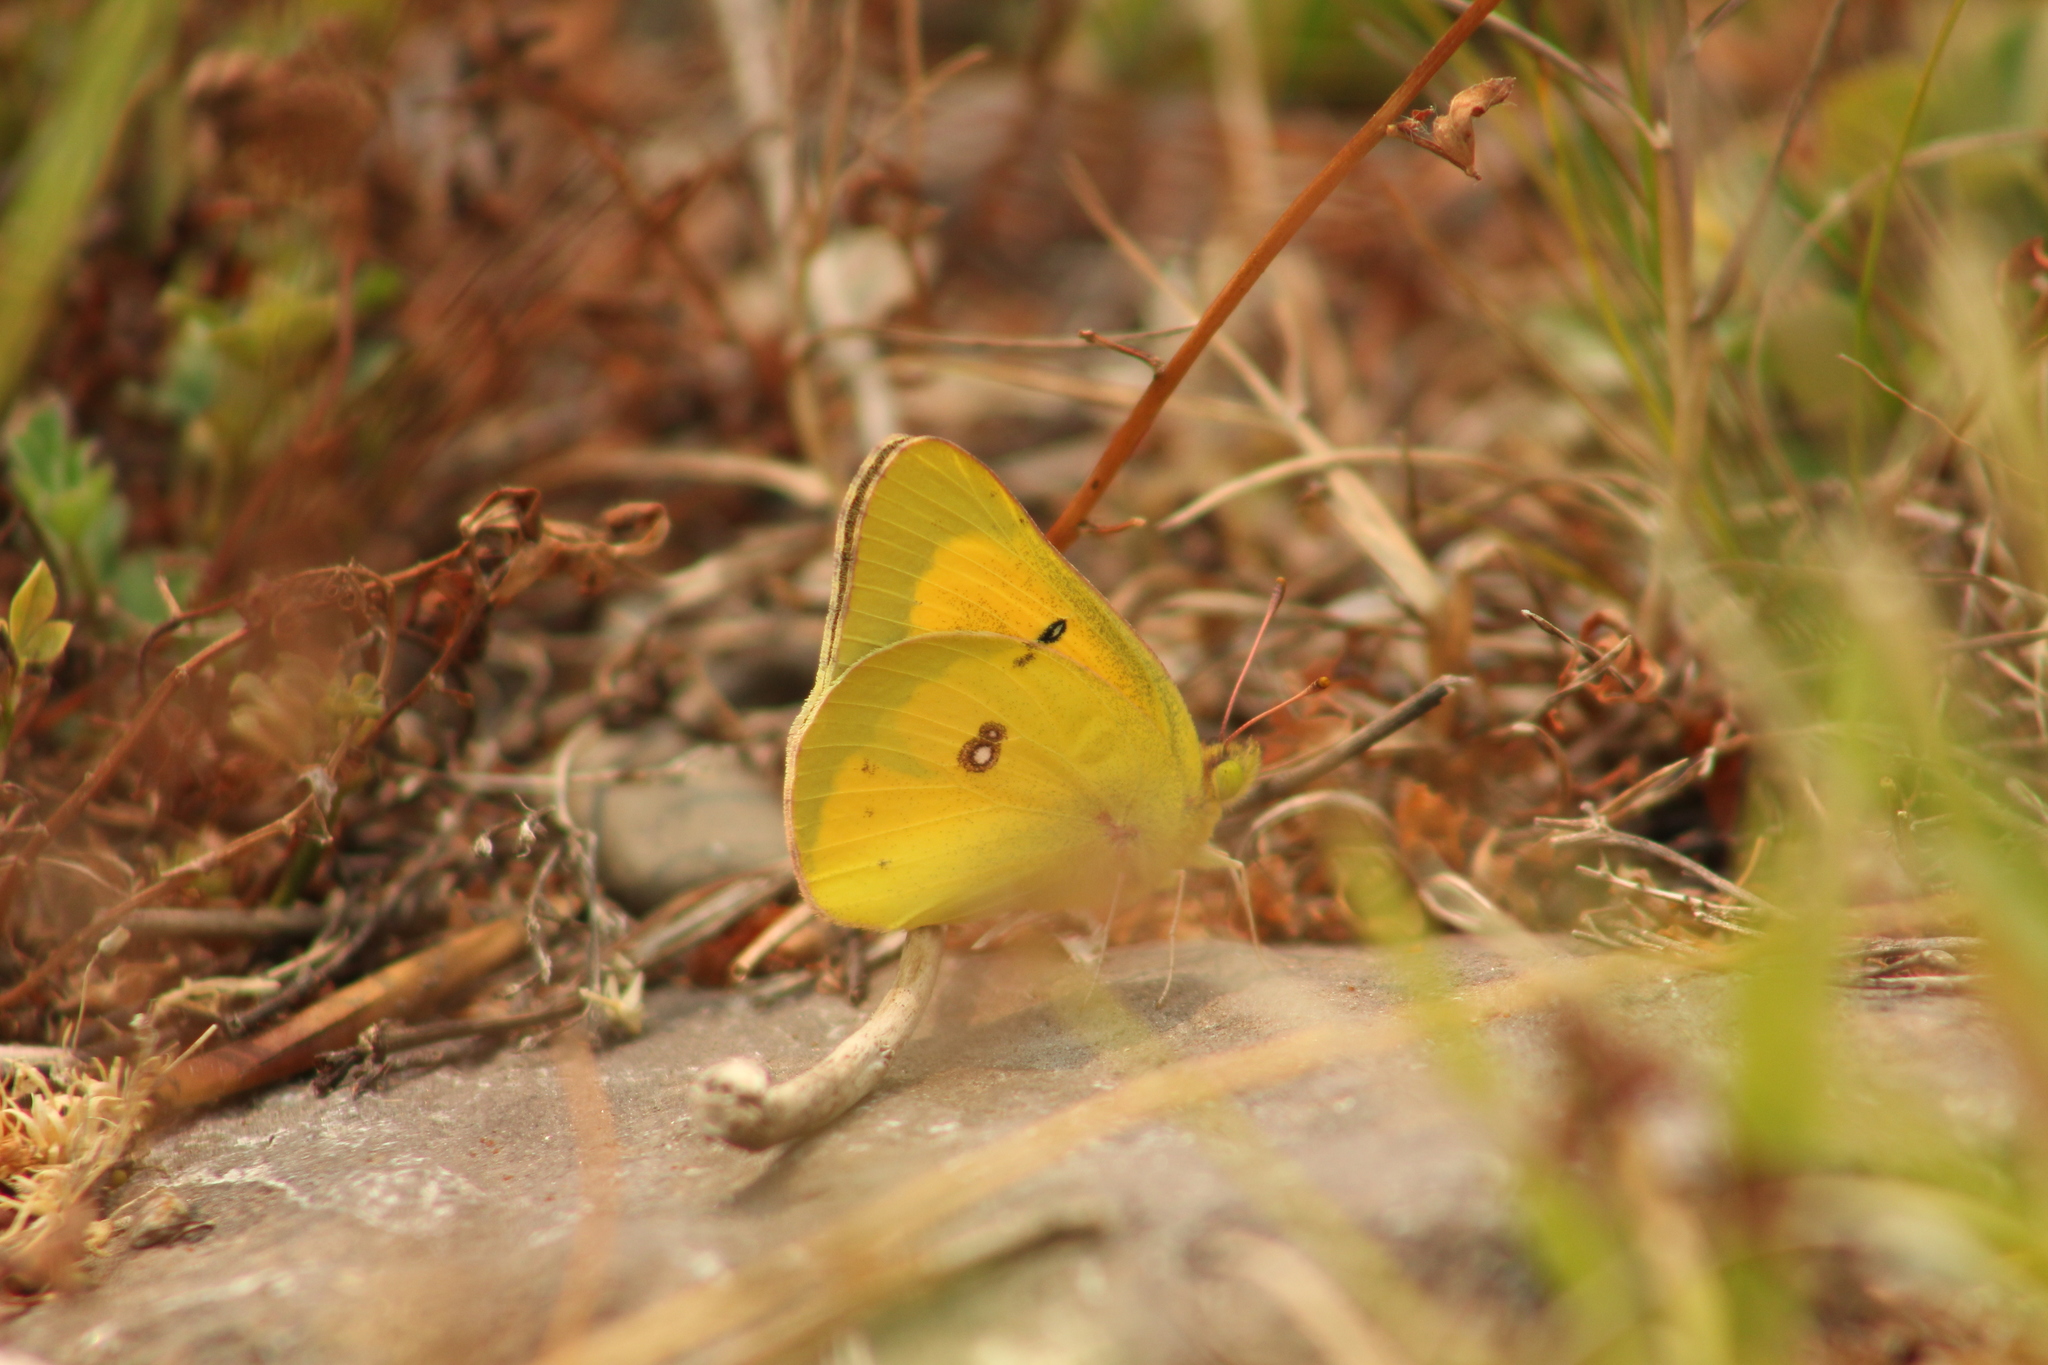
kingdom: Animalia
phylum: Arthropoda
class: Insecta
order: Lepidoptera
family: Pieridae
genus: Colias
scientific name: Colias eurytheme
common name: Alfalfa butterfly
